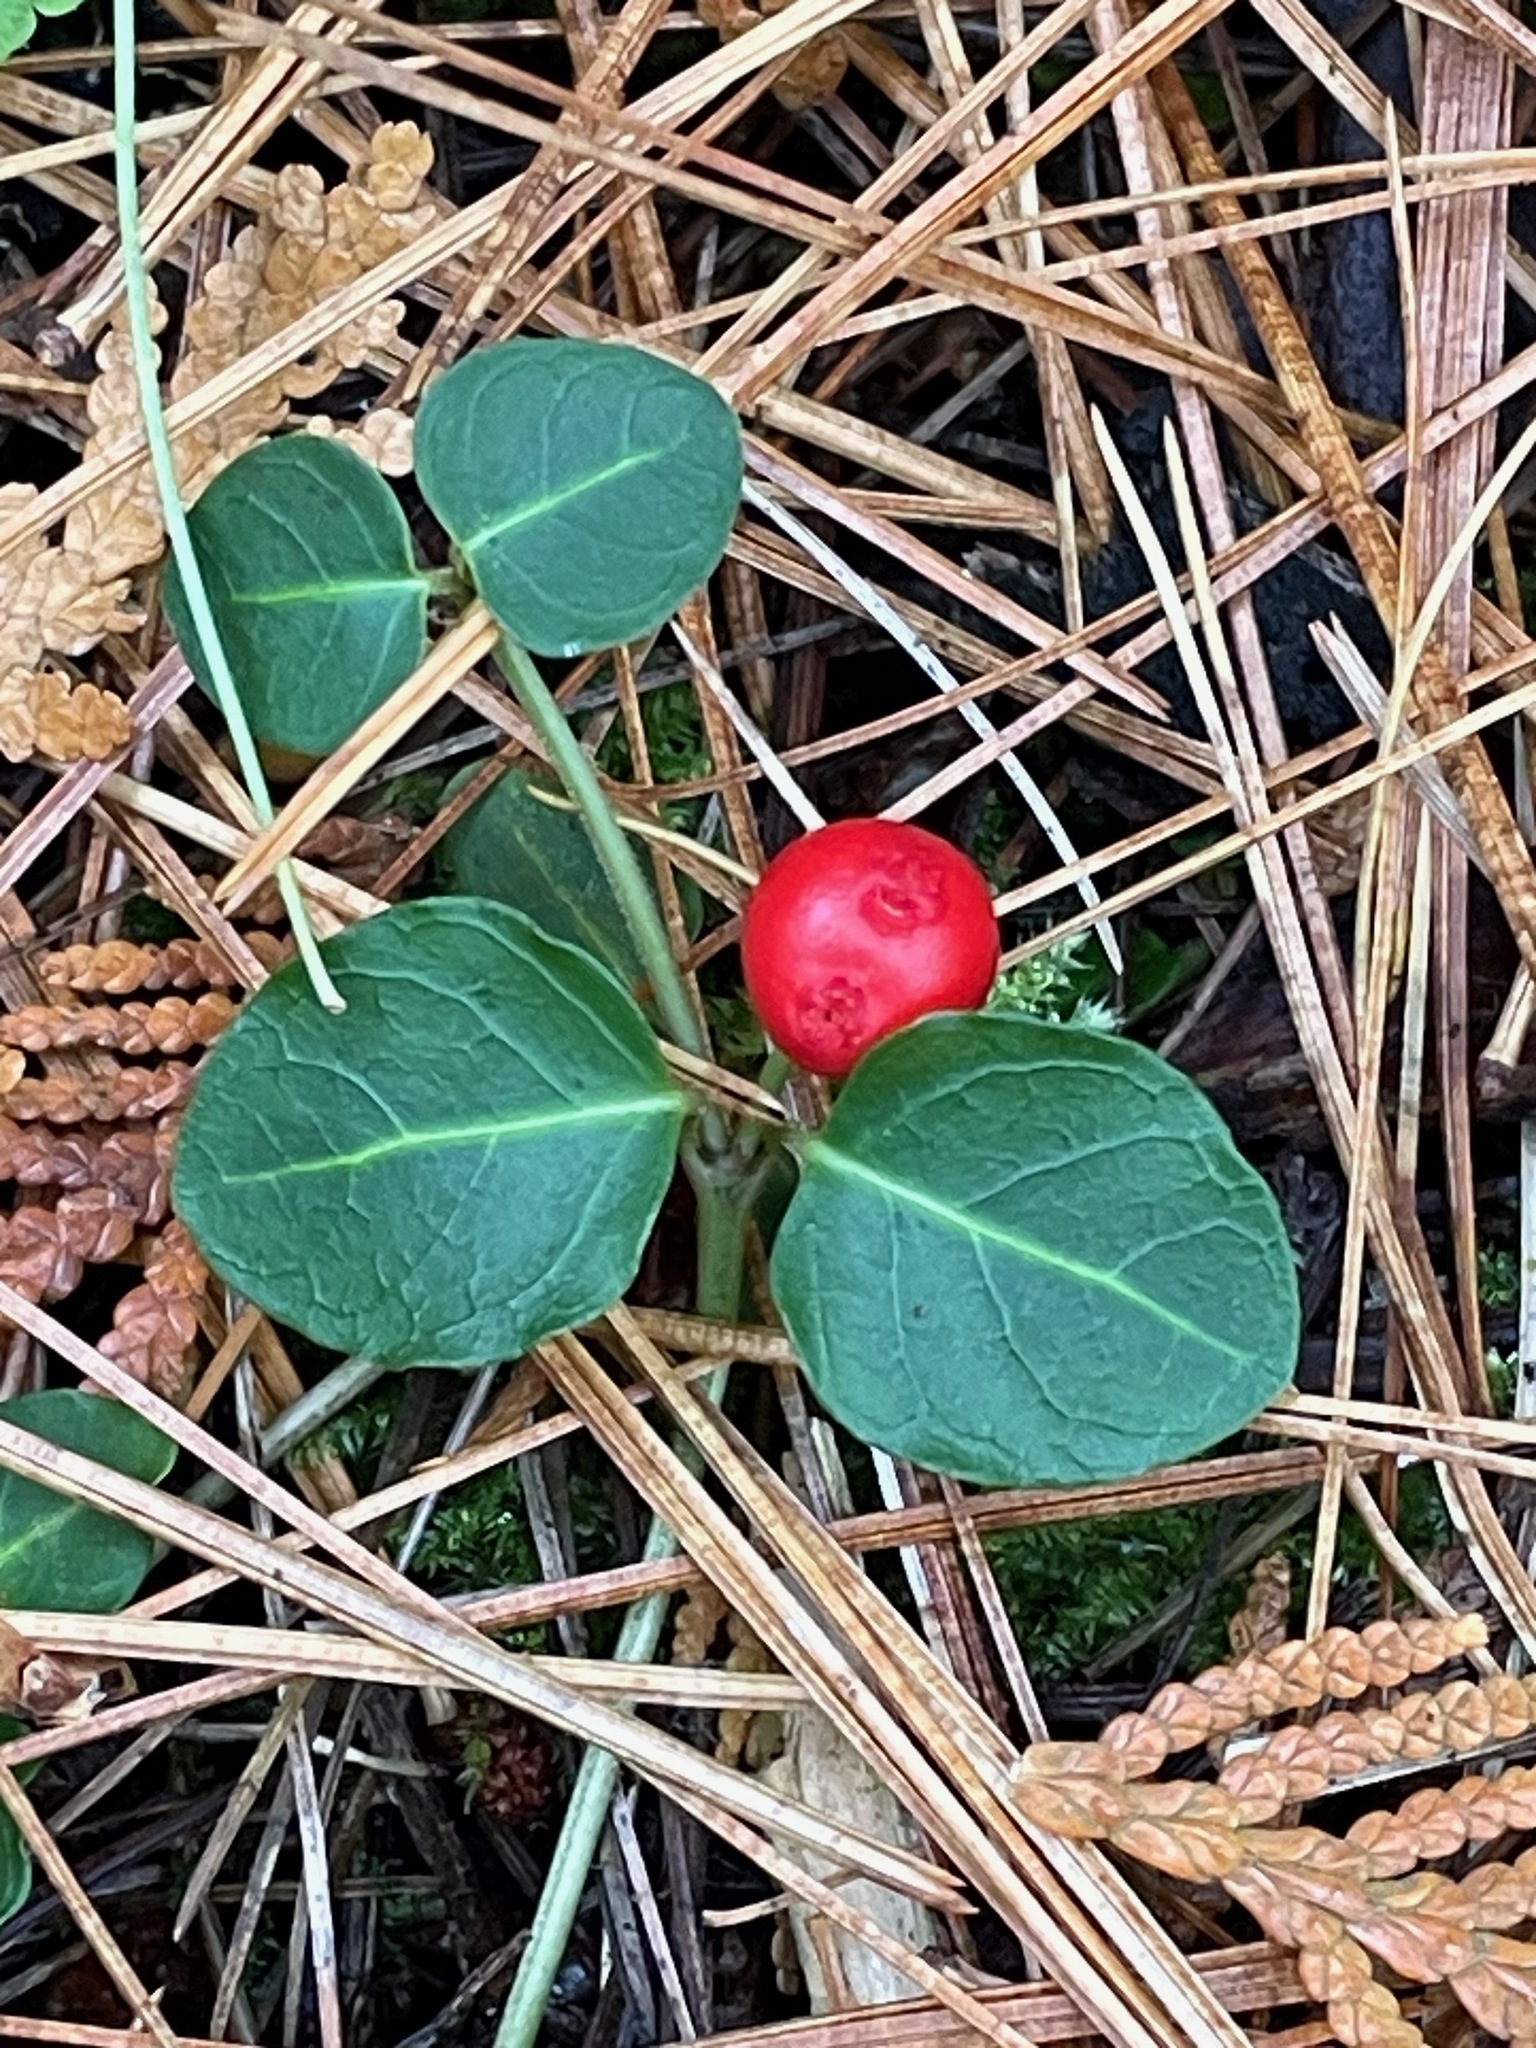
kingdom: Plantae
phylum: Tracheophyta
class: Magnoliopsida
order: Gentianales
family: Rubiaceae
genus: Mitchella
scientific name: Mitchella repens
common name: Partridge-berry
